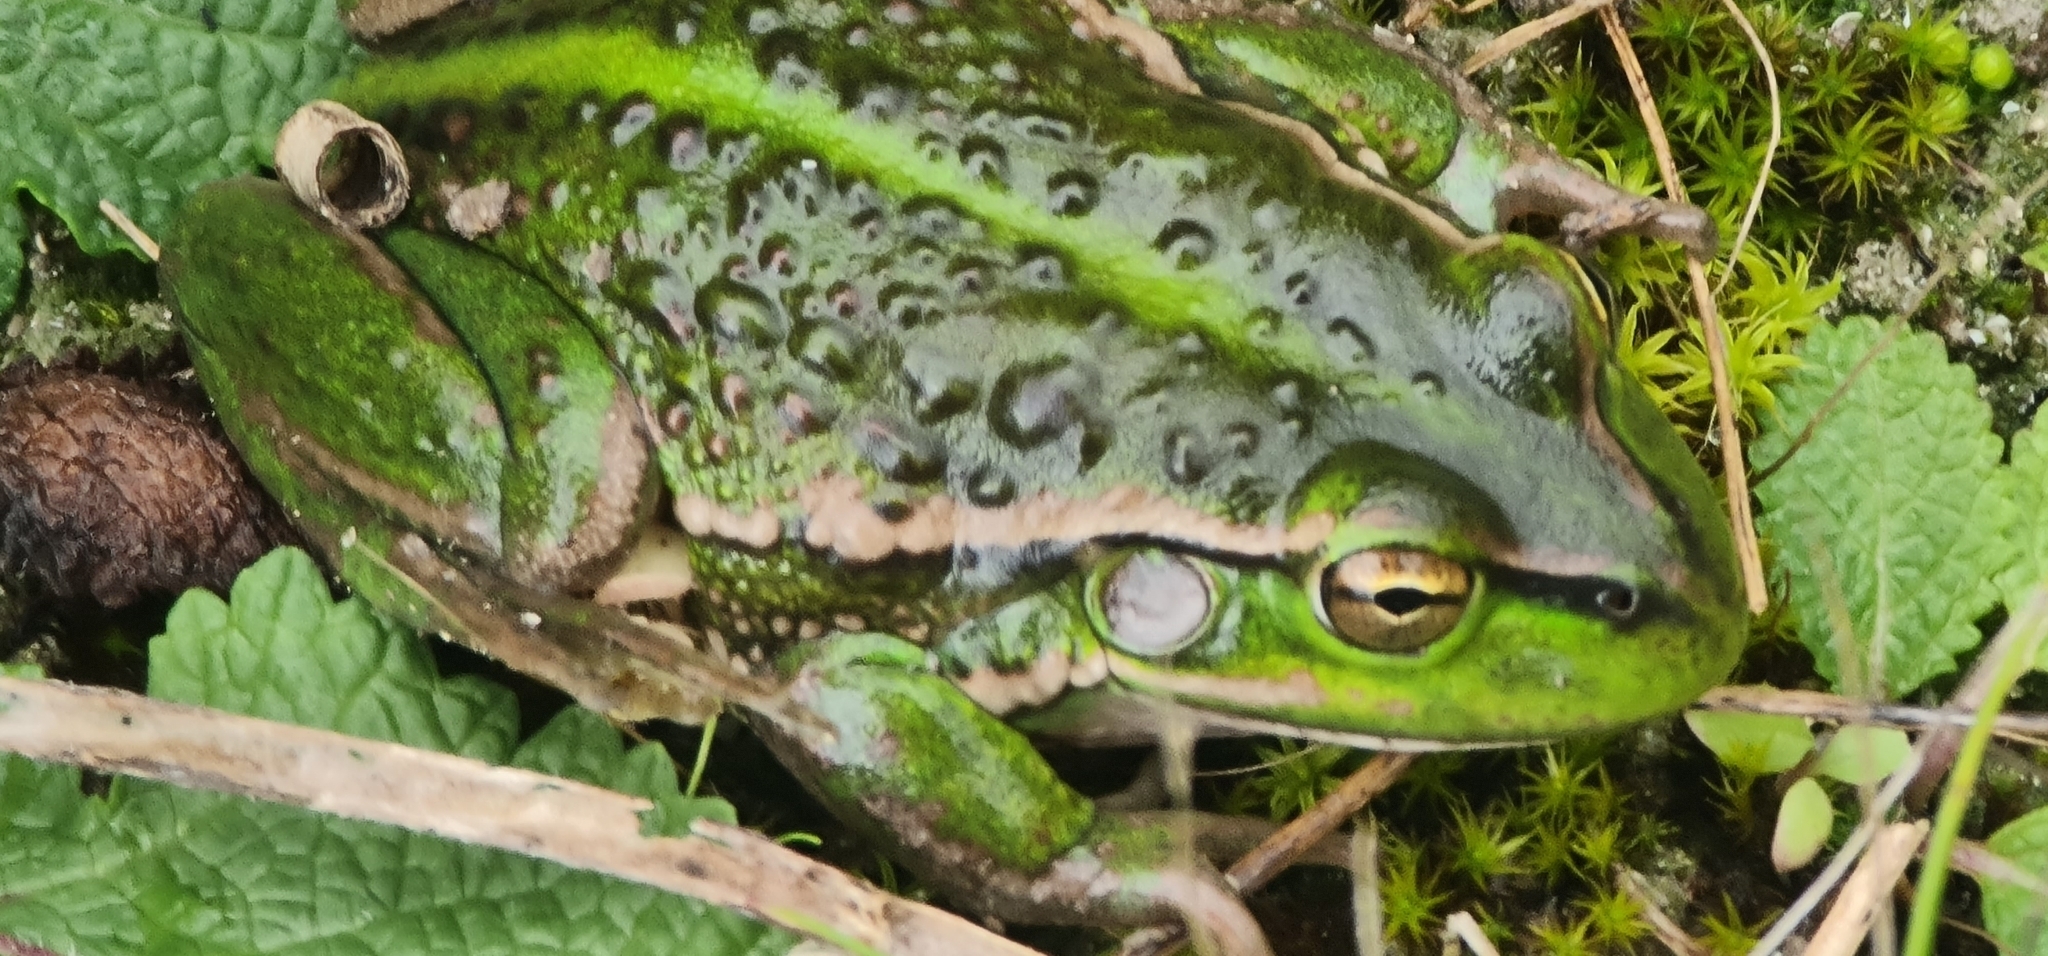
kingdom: Animalia
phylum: Chordata
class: Amphibia
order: Anura
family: Pelodryadidae
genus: Ranoidea
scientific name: Ranoidea raniformis
